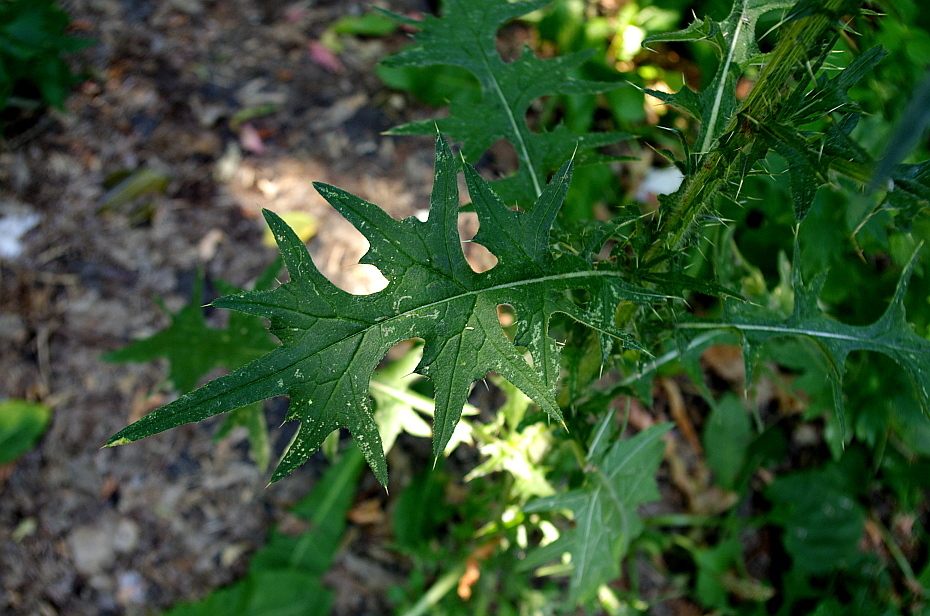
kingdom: Plantae
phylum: Tracheophyta
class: Magnoliopsida
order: Asterales
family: Asteraceae
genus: Cirsium
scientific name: Cirsium vulgare
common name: Bull thistle
